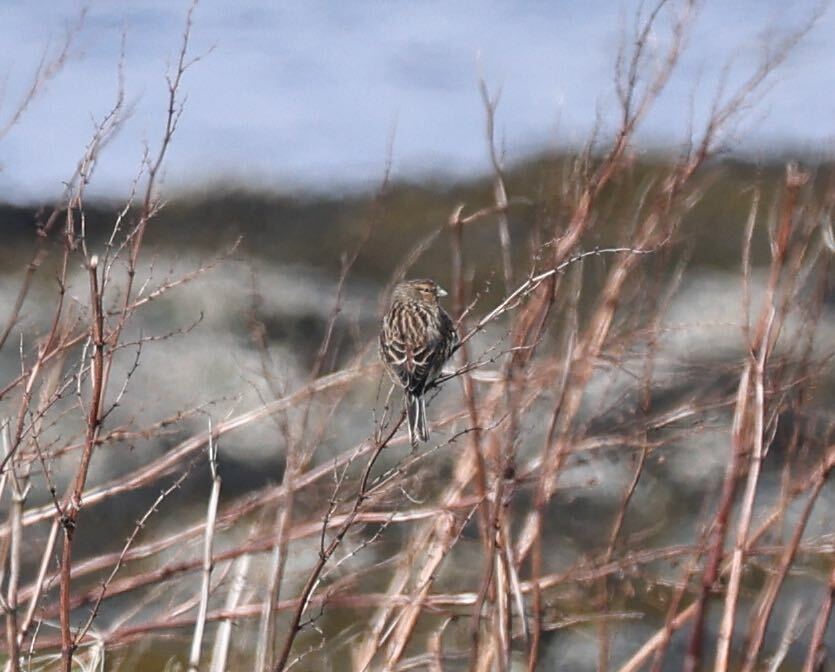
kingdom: Animalia
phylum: Chordata
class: Aves
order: Passeriformes
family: Fringillidae
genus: Linaria
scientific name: Linaria flavirostris
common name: Twite
